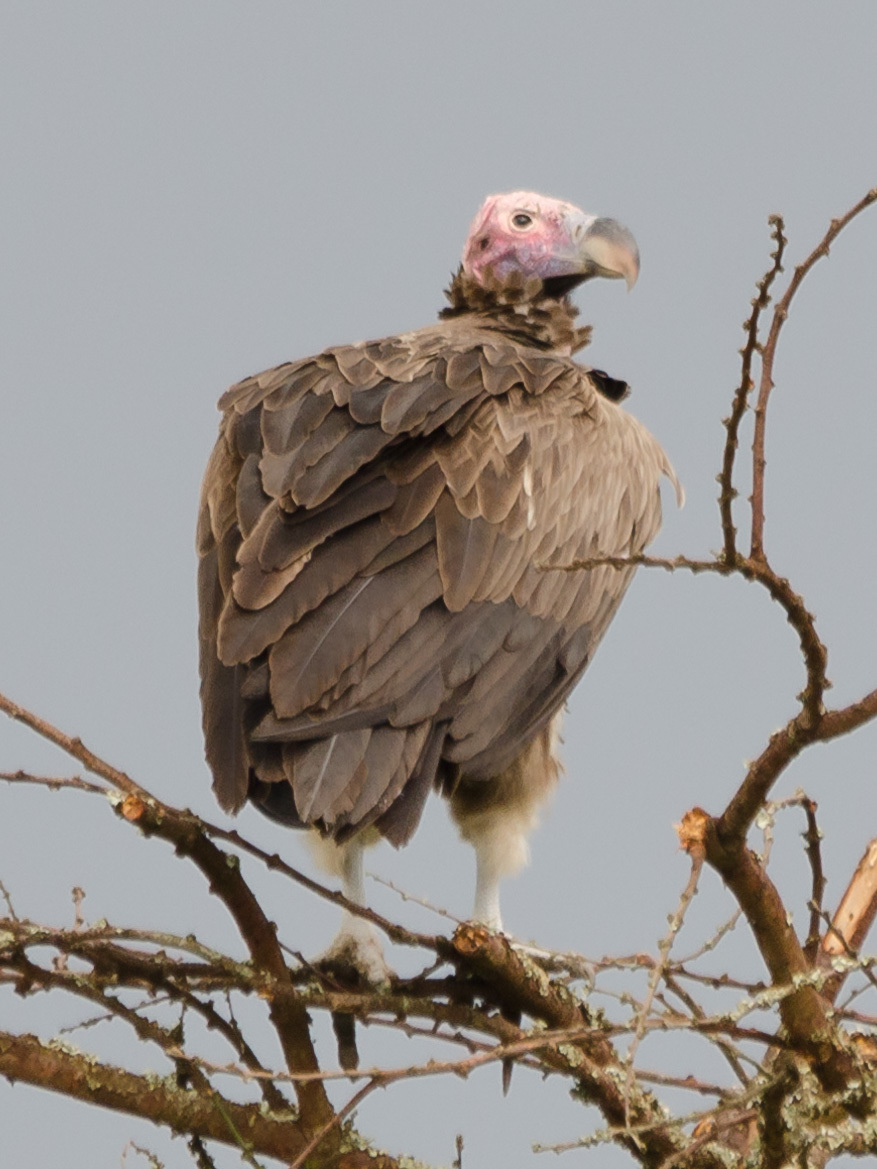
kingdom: Animalia
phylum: Chordata
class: Aves
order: Accipitriformes
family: Accipitridae
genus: Torgos
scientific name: Torgos tracheliotos
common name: Lappet-faced vulture
